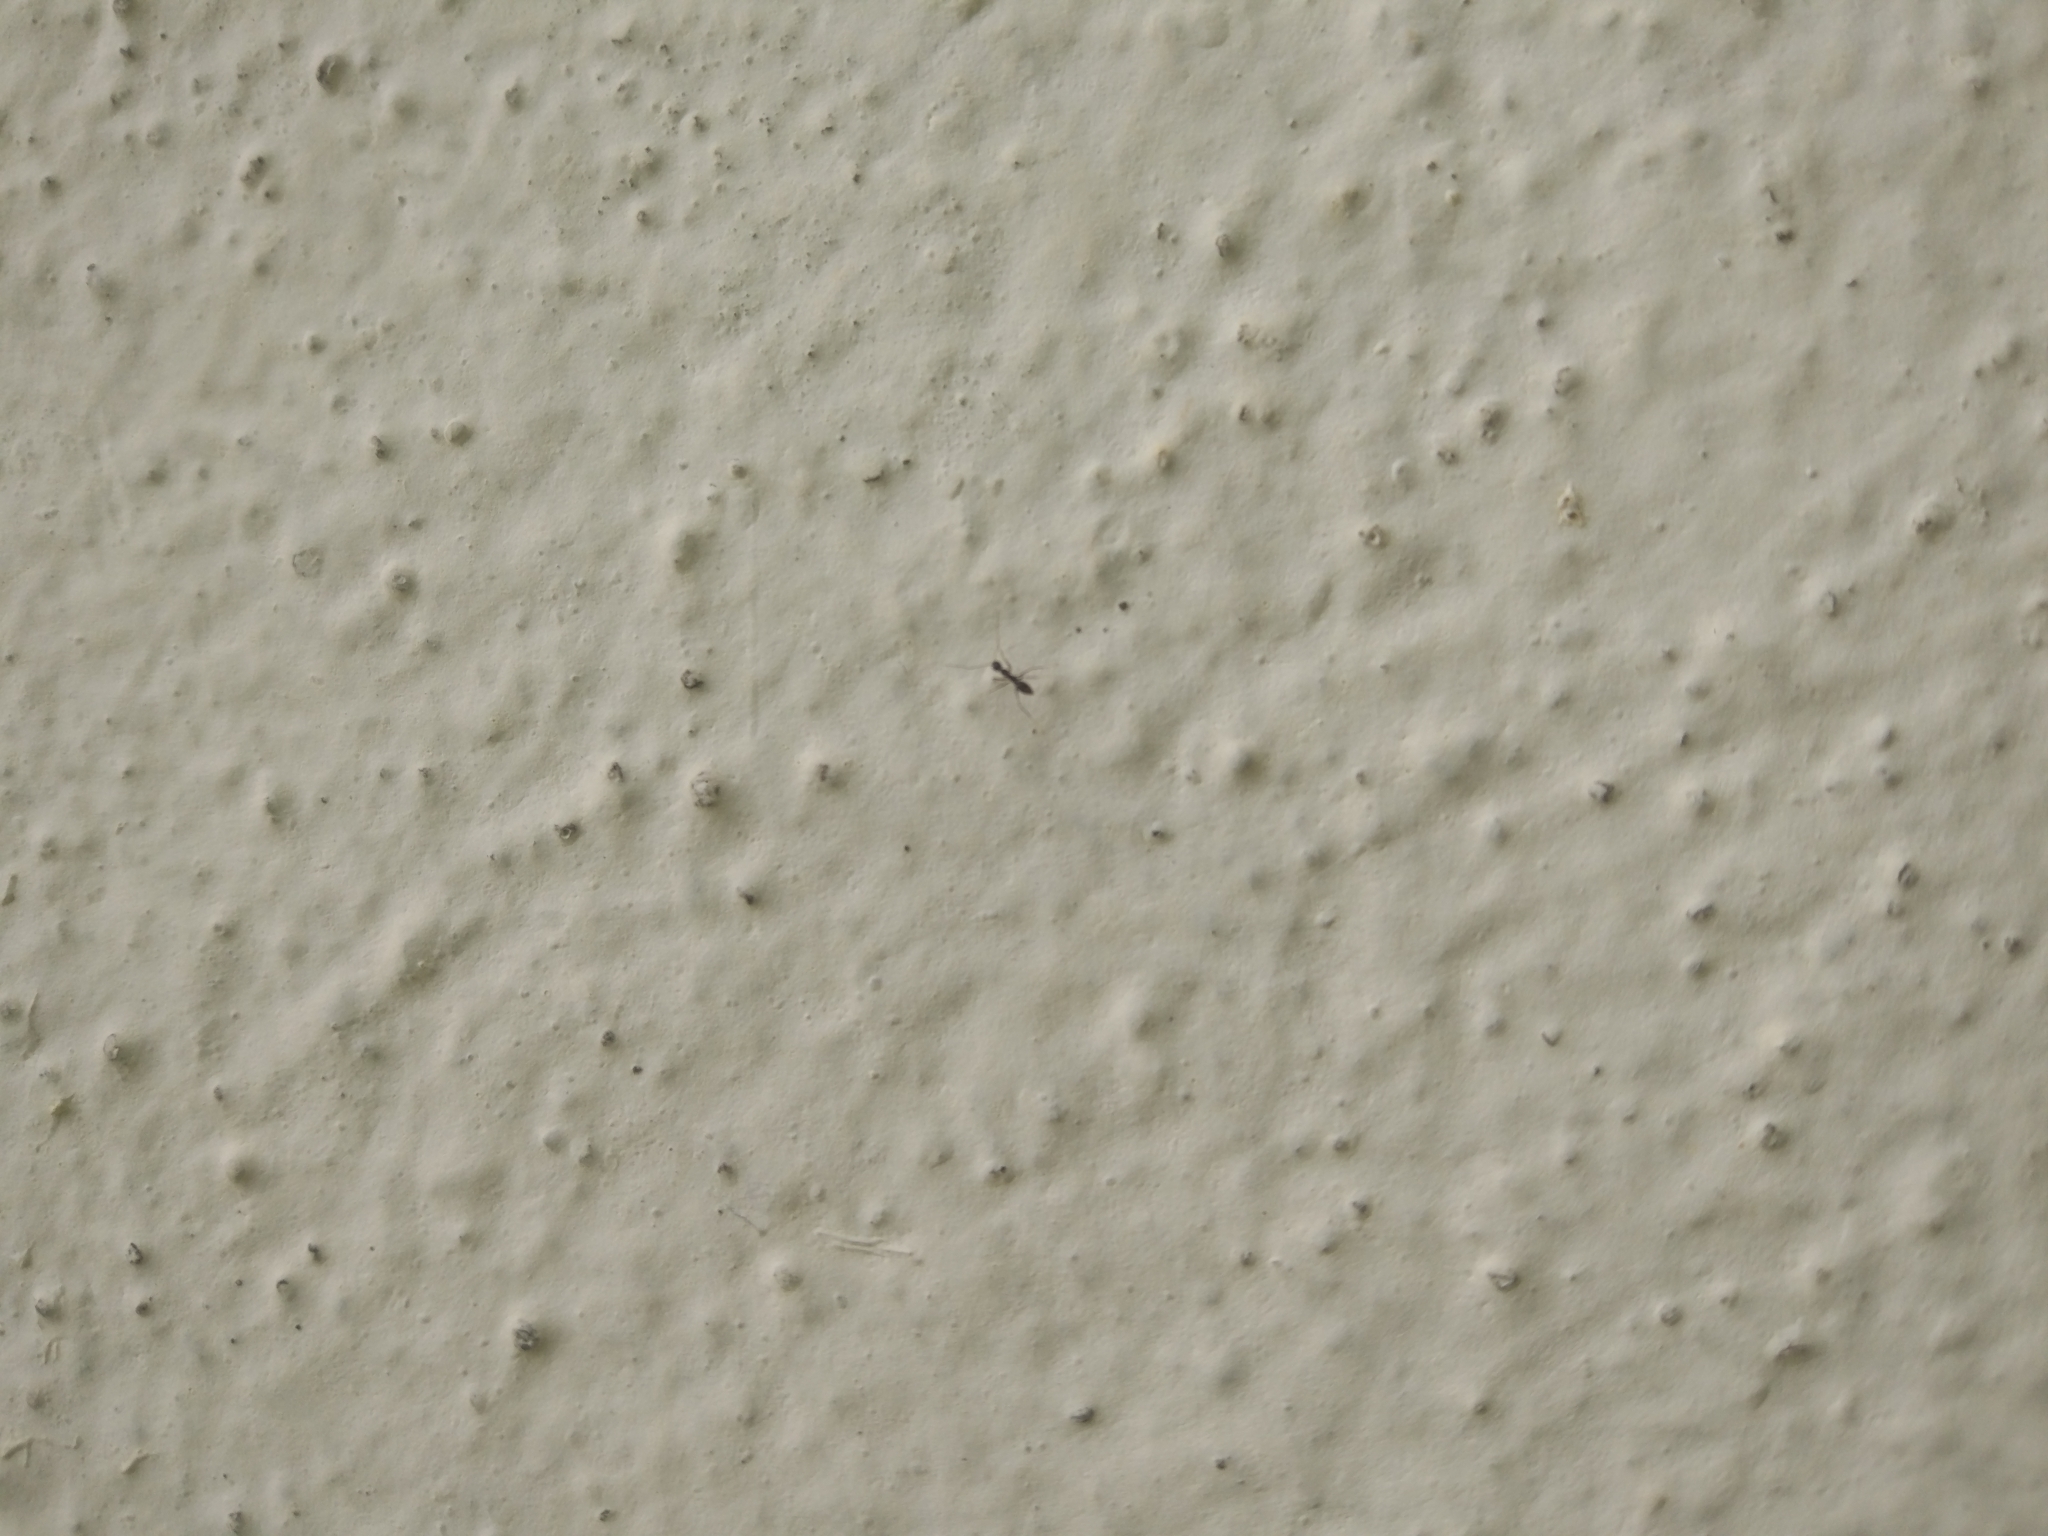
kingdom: Animalia
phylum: Arthropoda
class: Insecta
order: Hymenoptera
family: Formicidae
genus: Paratrechina
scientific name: Paratrechina longicornis
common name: Longhorned crazy ant
